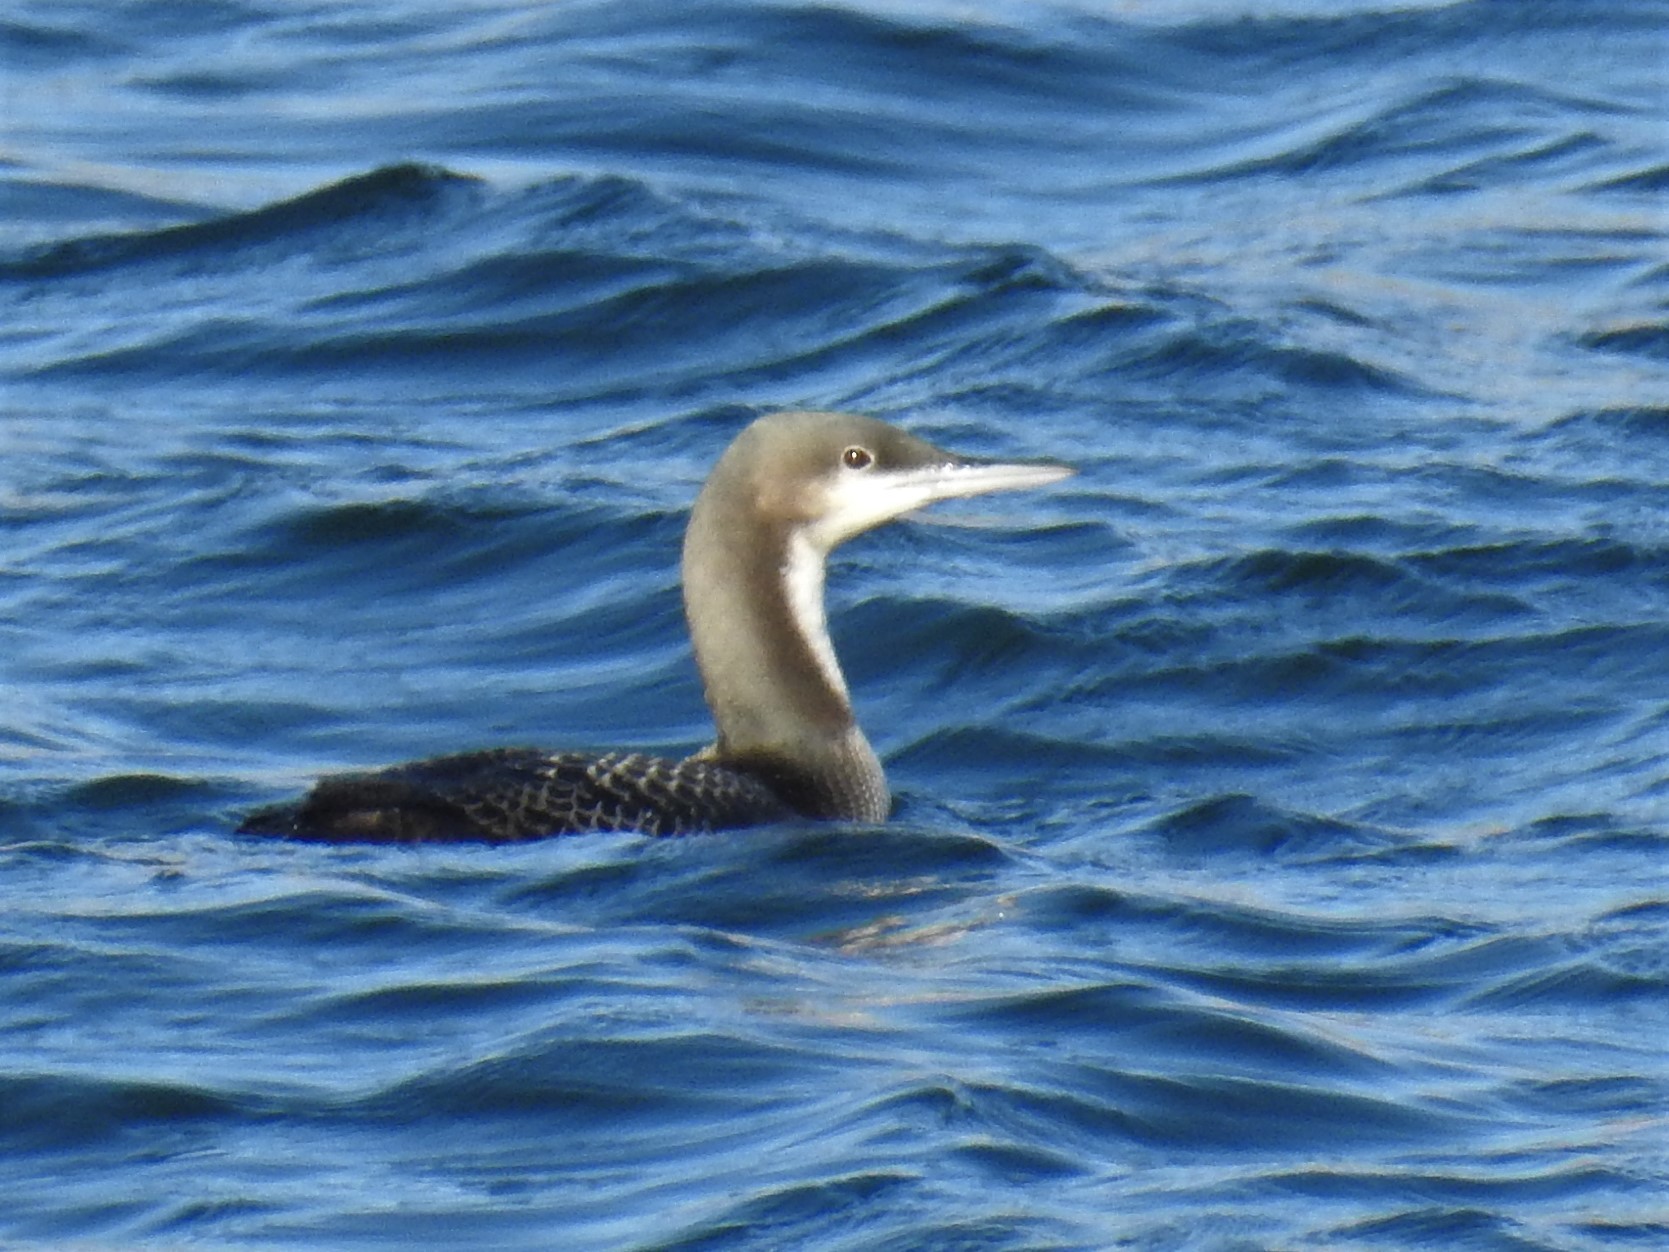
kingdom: Animalia
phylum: Chordata
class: Aves
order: Gaviiformes
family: Gaviidae
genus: Gavia
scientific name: Gavia pacifica
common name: Pacific loon
